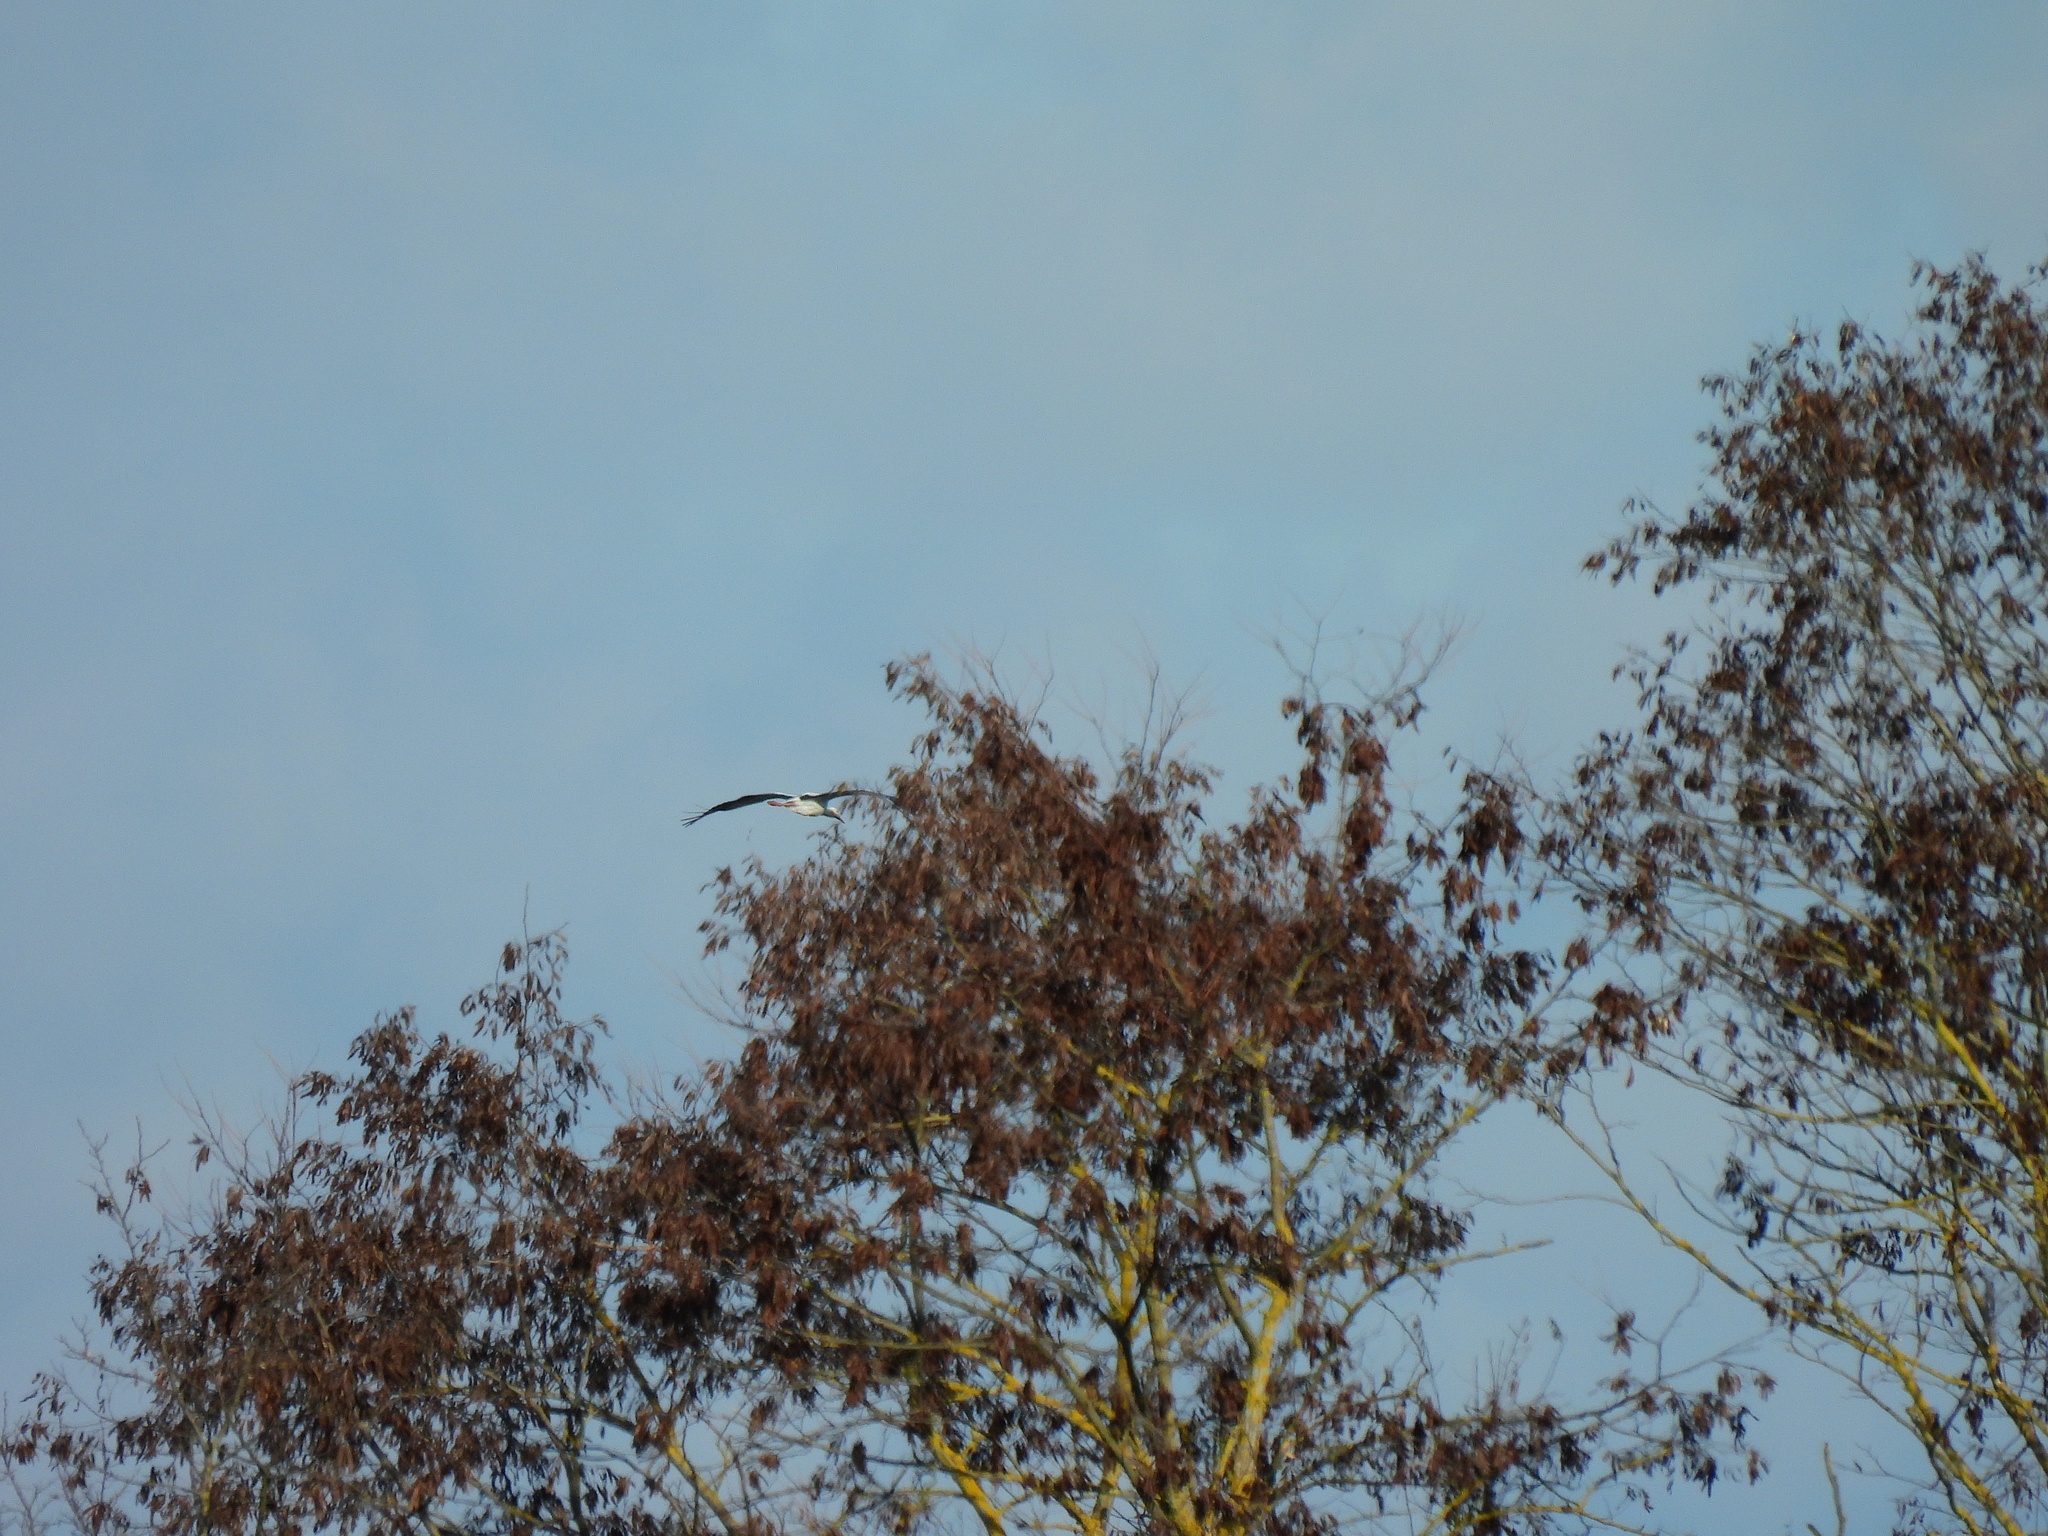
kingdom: Animalia
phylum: Chordata
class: Aves
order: Ciconiiformes
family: Ciconiidae
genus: Ciconia
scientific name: Ciconia ciconia
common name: White stork
